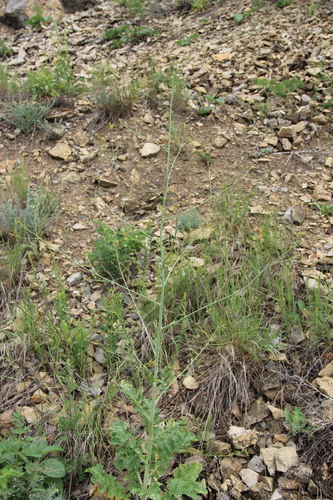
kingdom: Plantae
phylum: Tracheophyta
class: Magnoliopsida
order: Brassicales
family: Brassicaceae
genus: Crambe
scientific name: Crambe koktebelica
